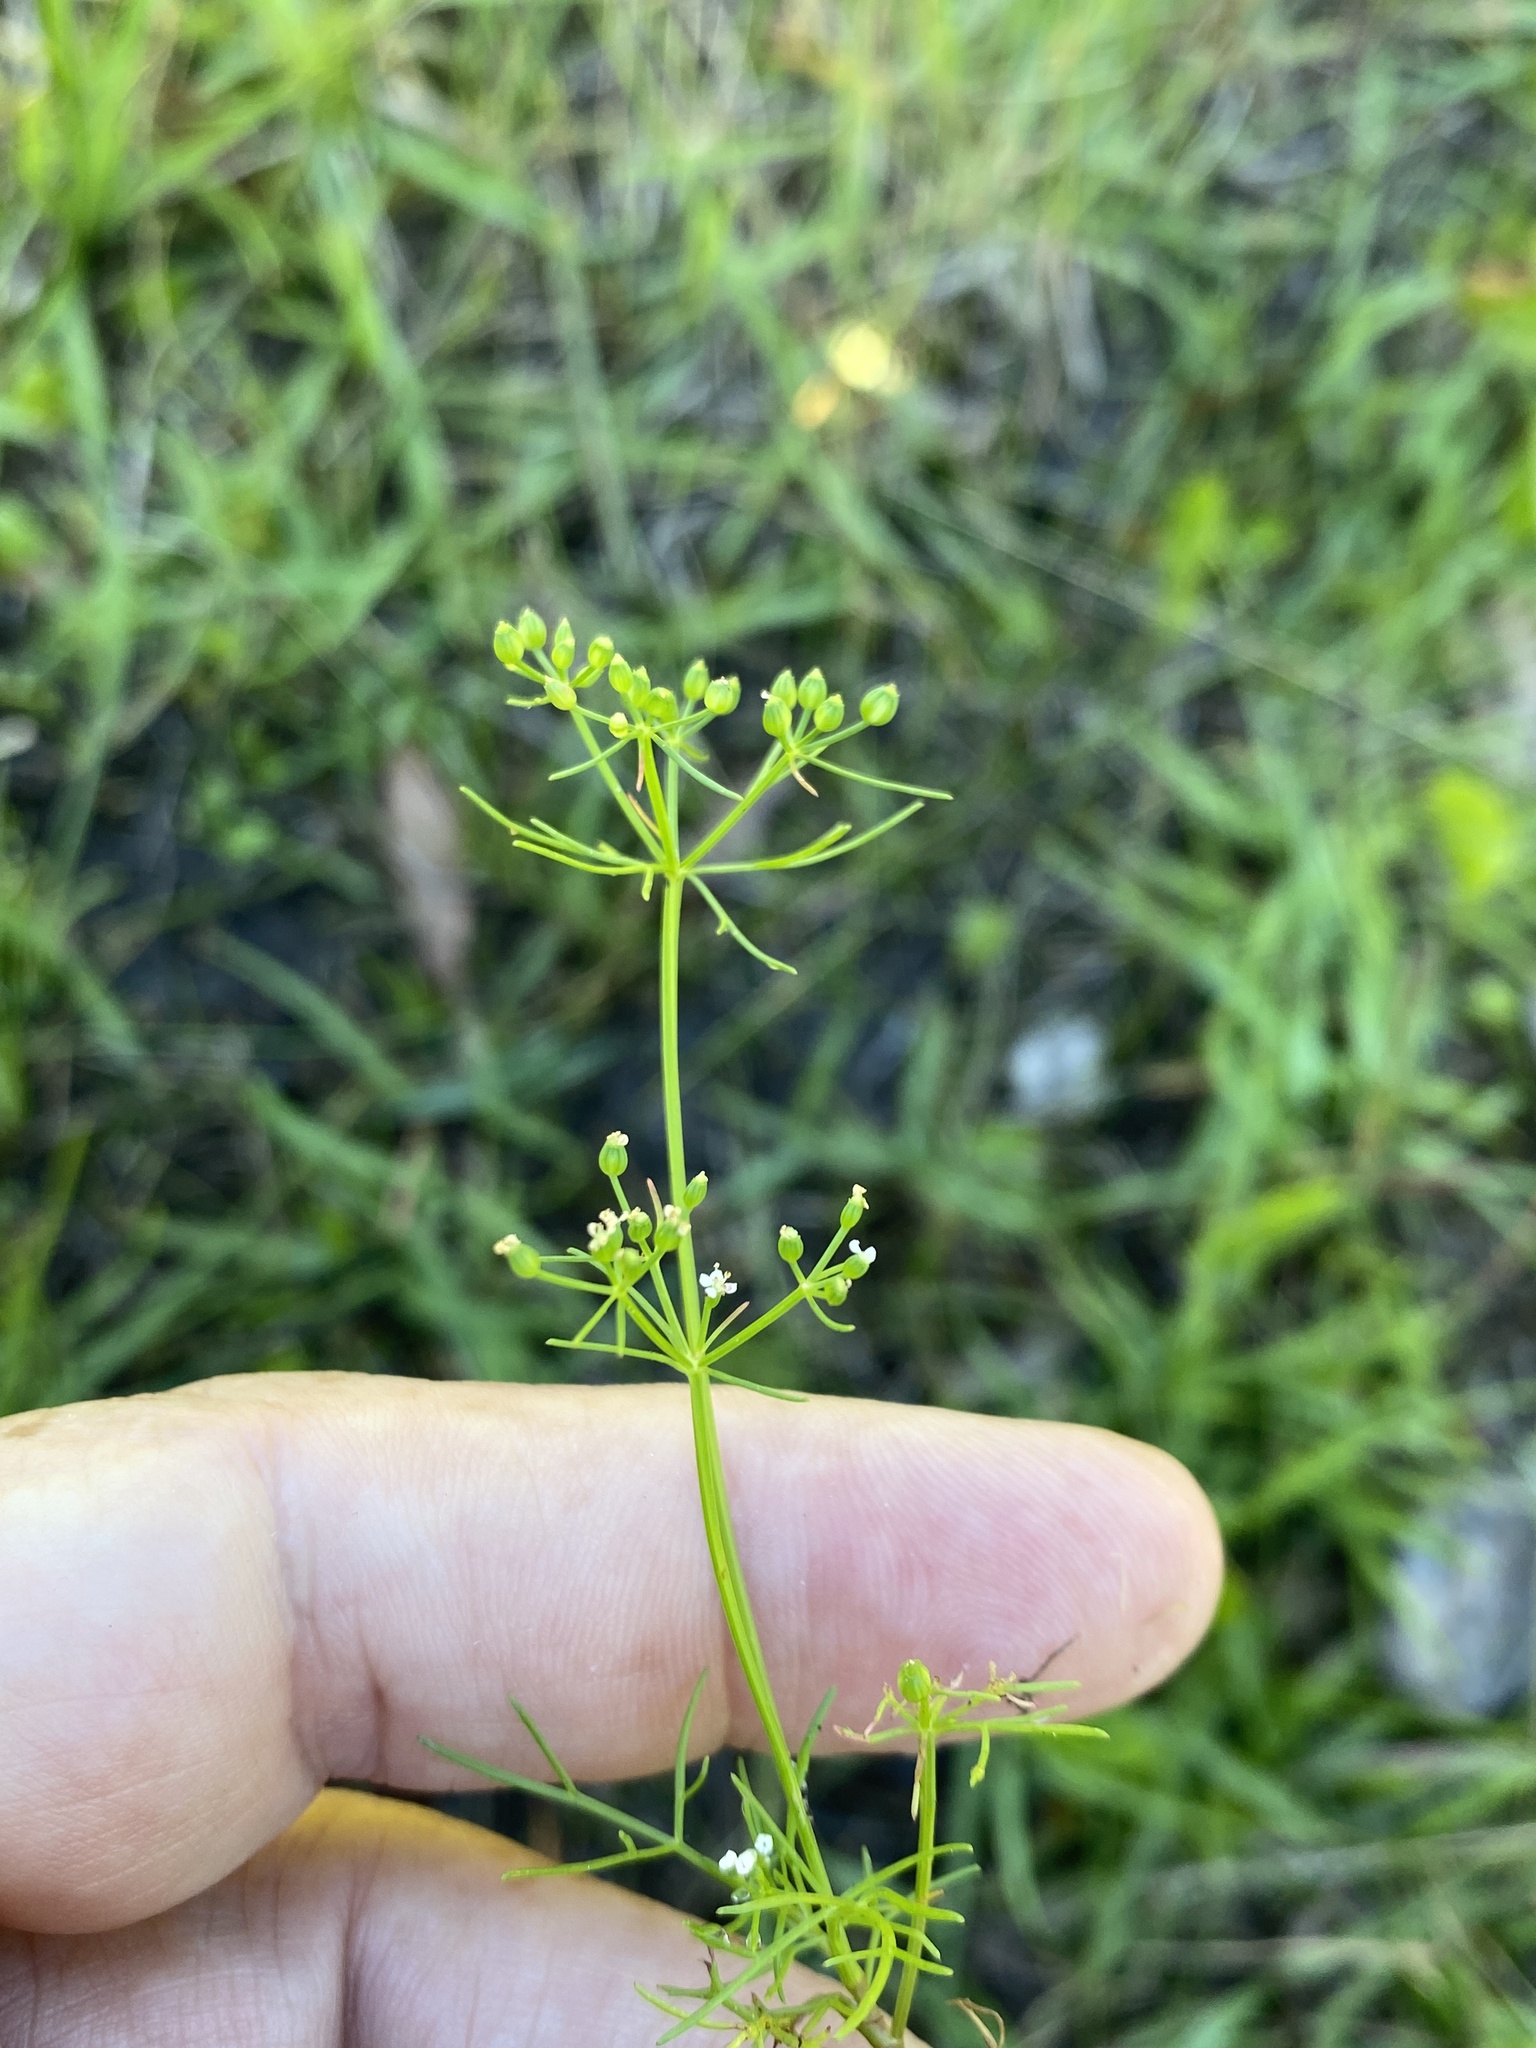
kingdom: Plantae
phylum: Tracheophyta
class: Magnoliopsida
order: Apiales
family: Apiaceae
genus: Cyclospermum
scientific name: Cyclospermum leptophyllum
